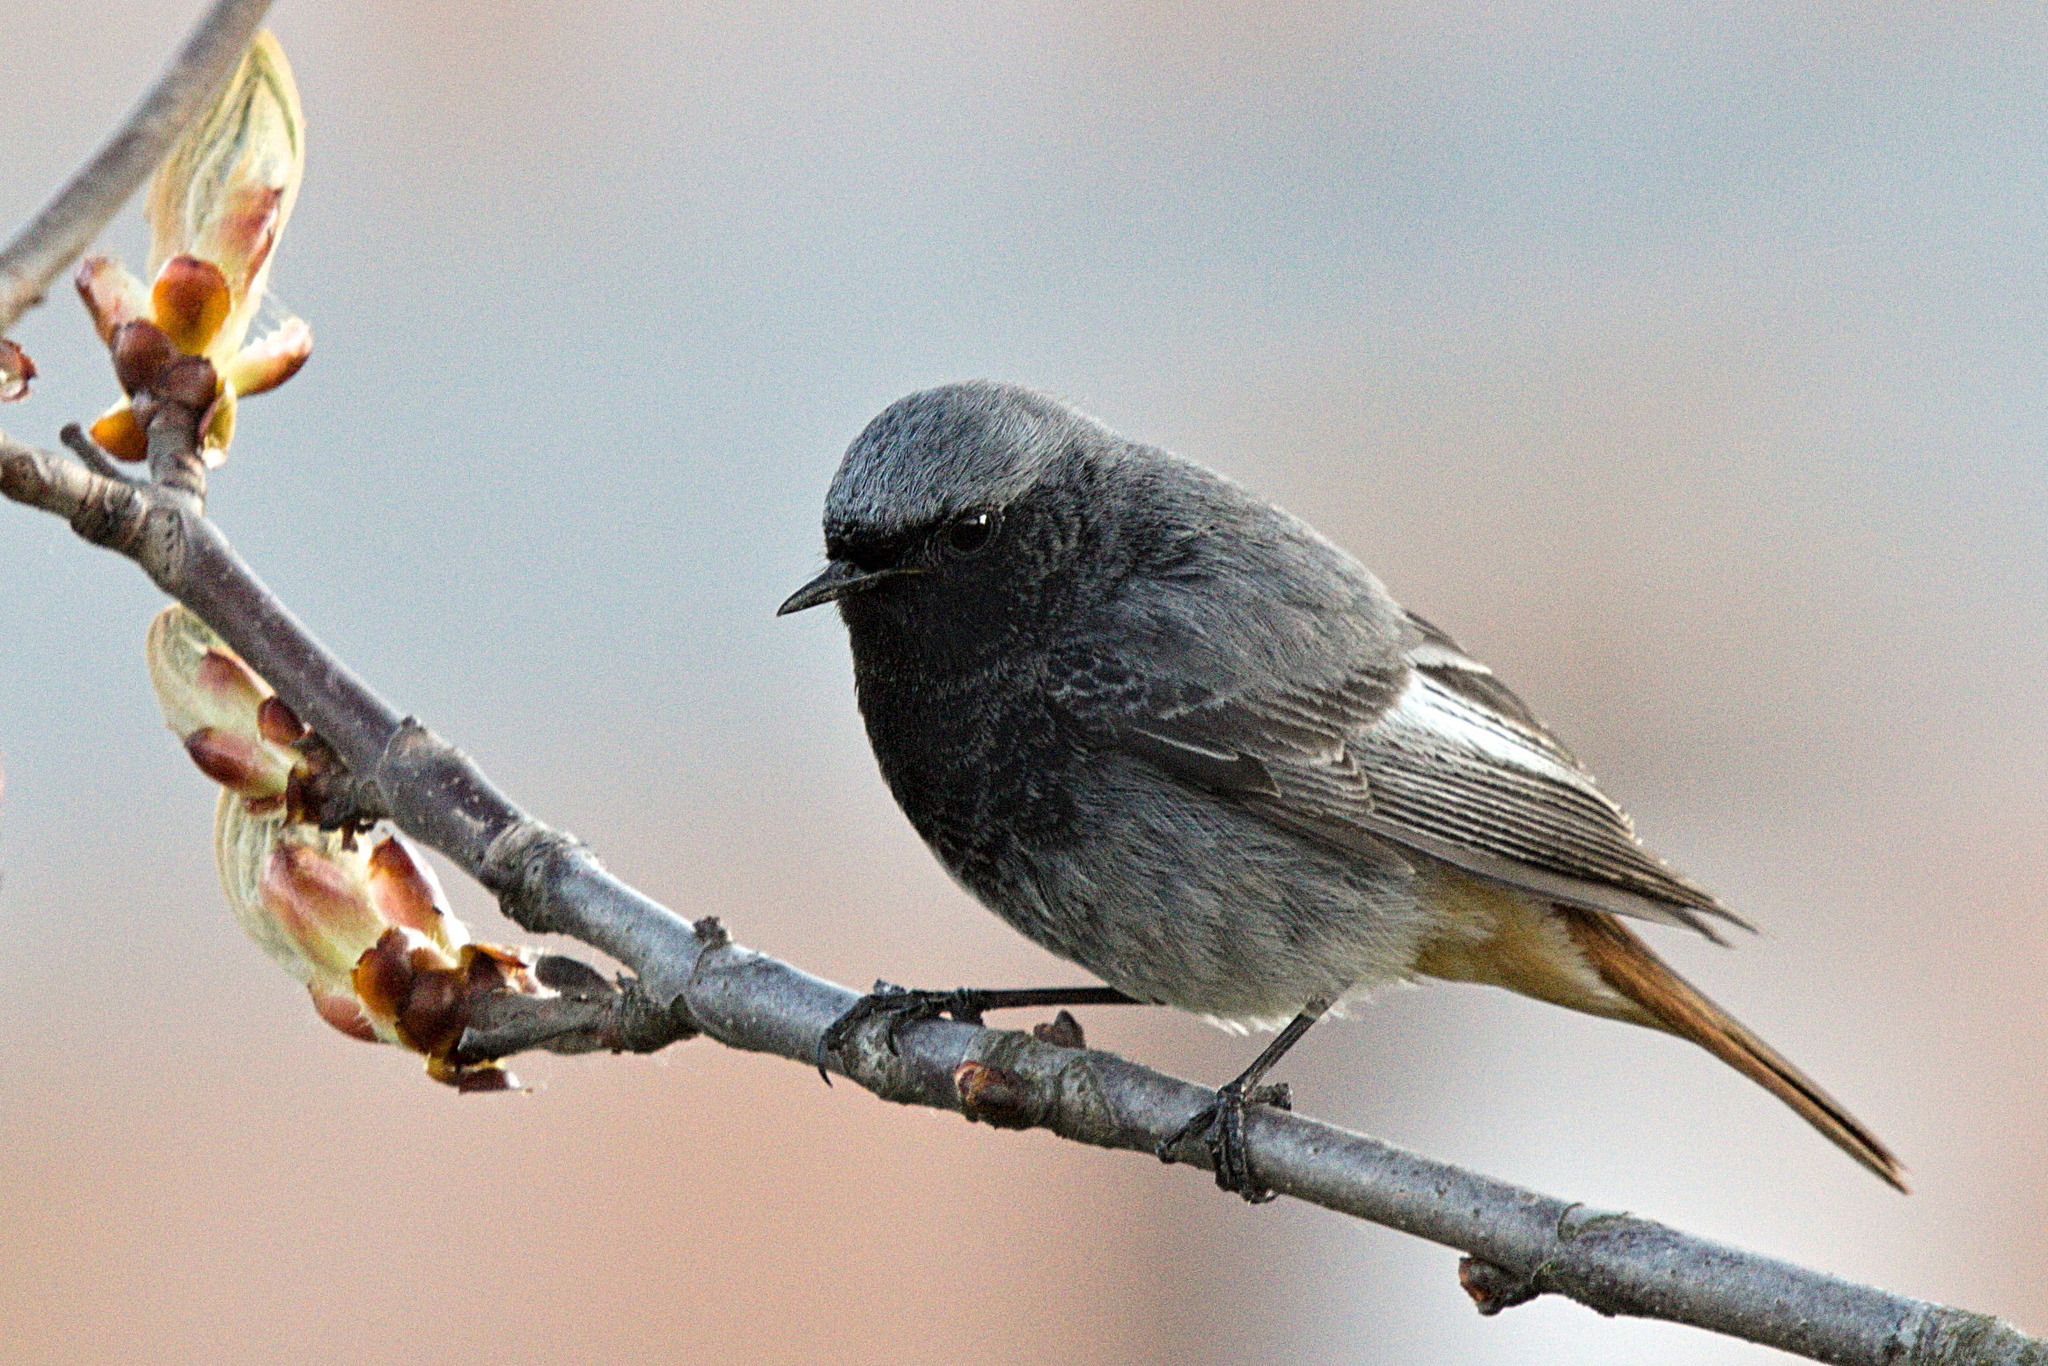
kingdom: Animalia
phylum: Chordata
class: Aves
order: Passeriformes
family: Muscicapidae
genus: Phoenicurus
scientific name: Phoenicurus ochruros
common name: Black redstart
